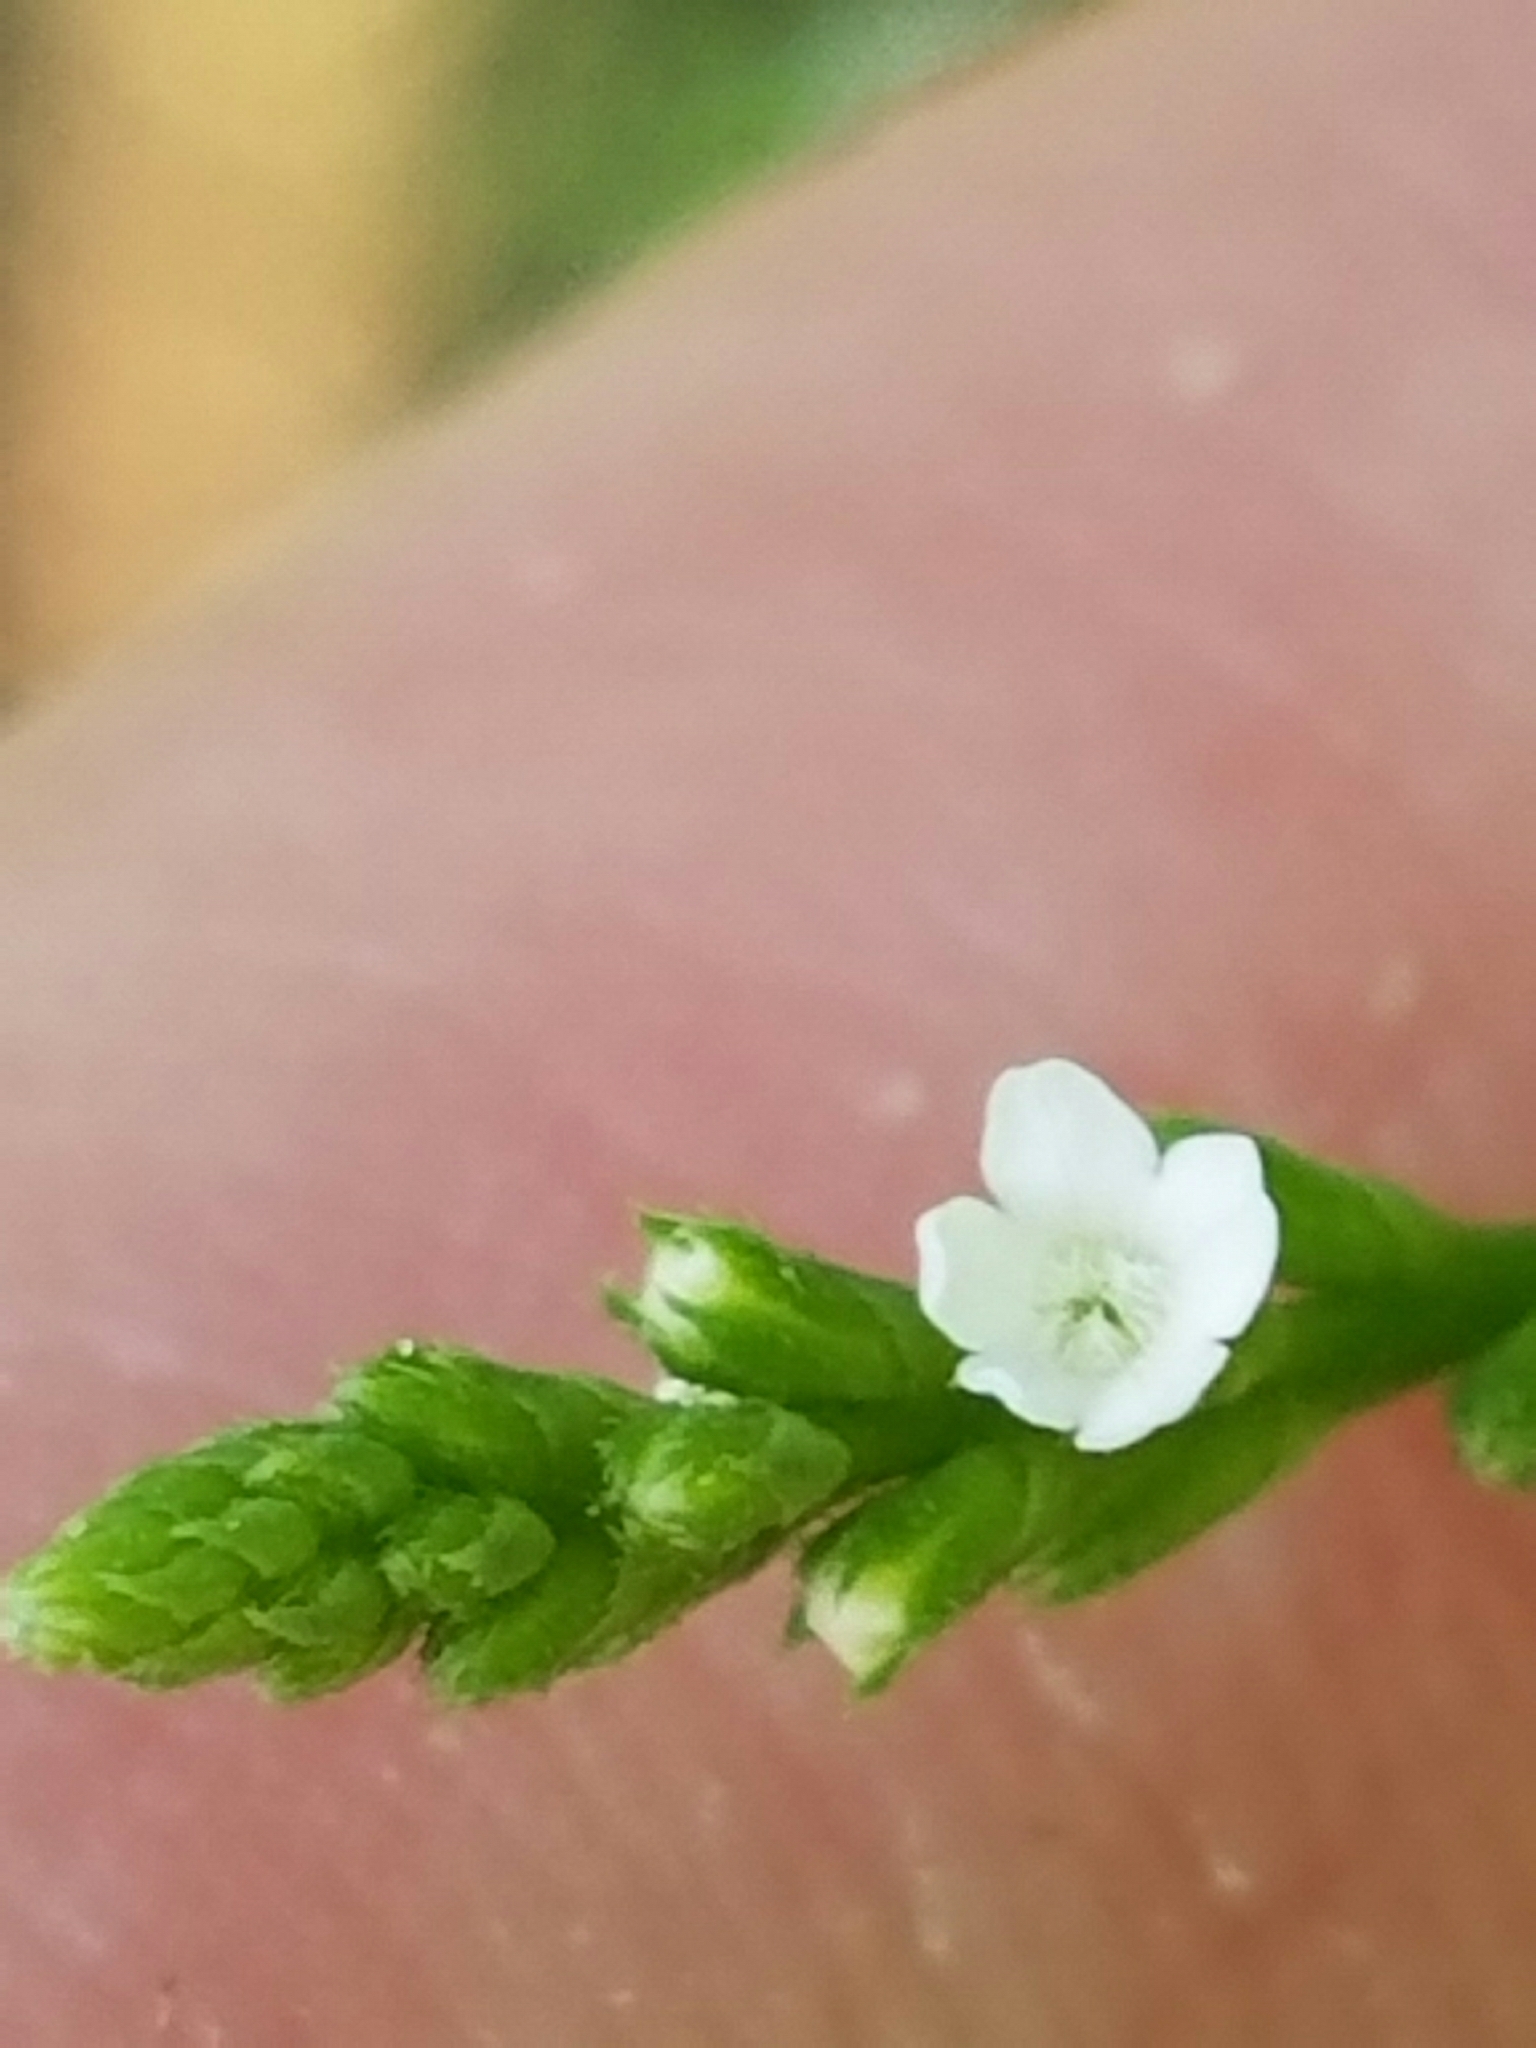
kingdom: Plantae
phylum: Tracheophyta
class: Magnoliopsida
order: Lamiales
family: Verbenaceae
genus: Verbena
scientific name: Verbena urticifolia
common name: Nettle-leaved vervain
